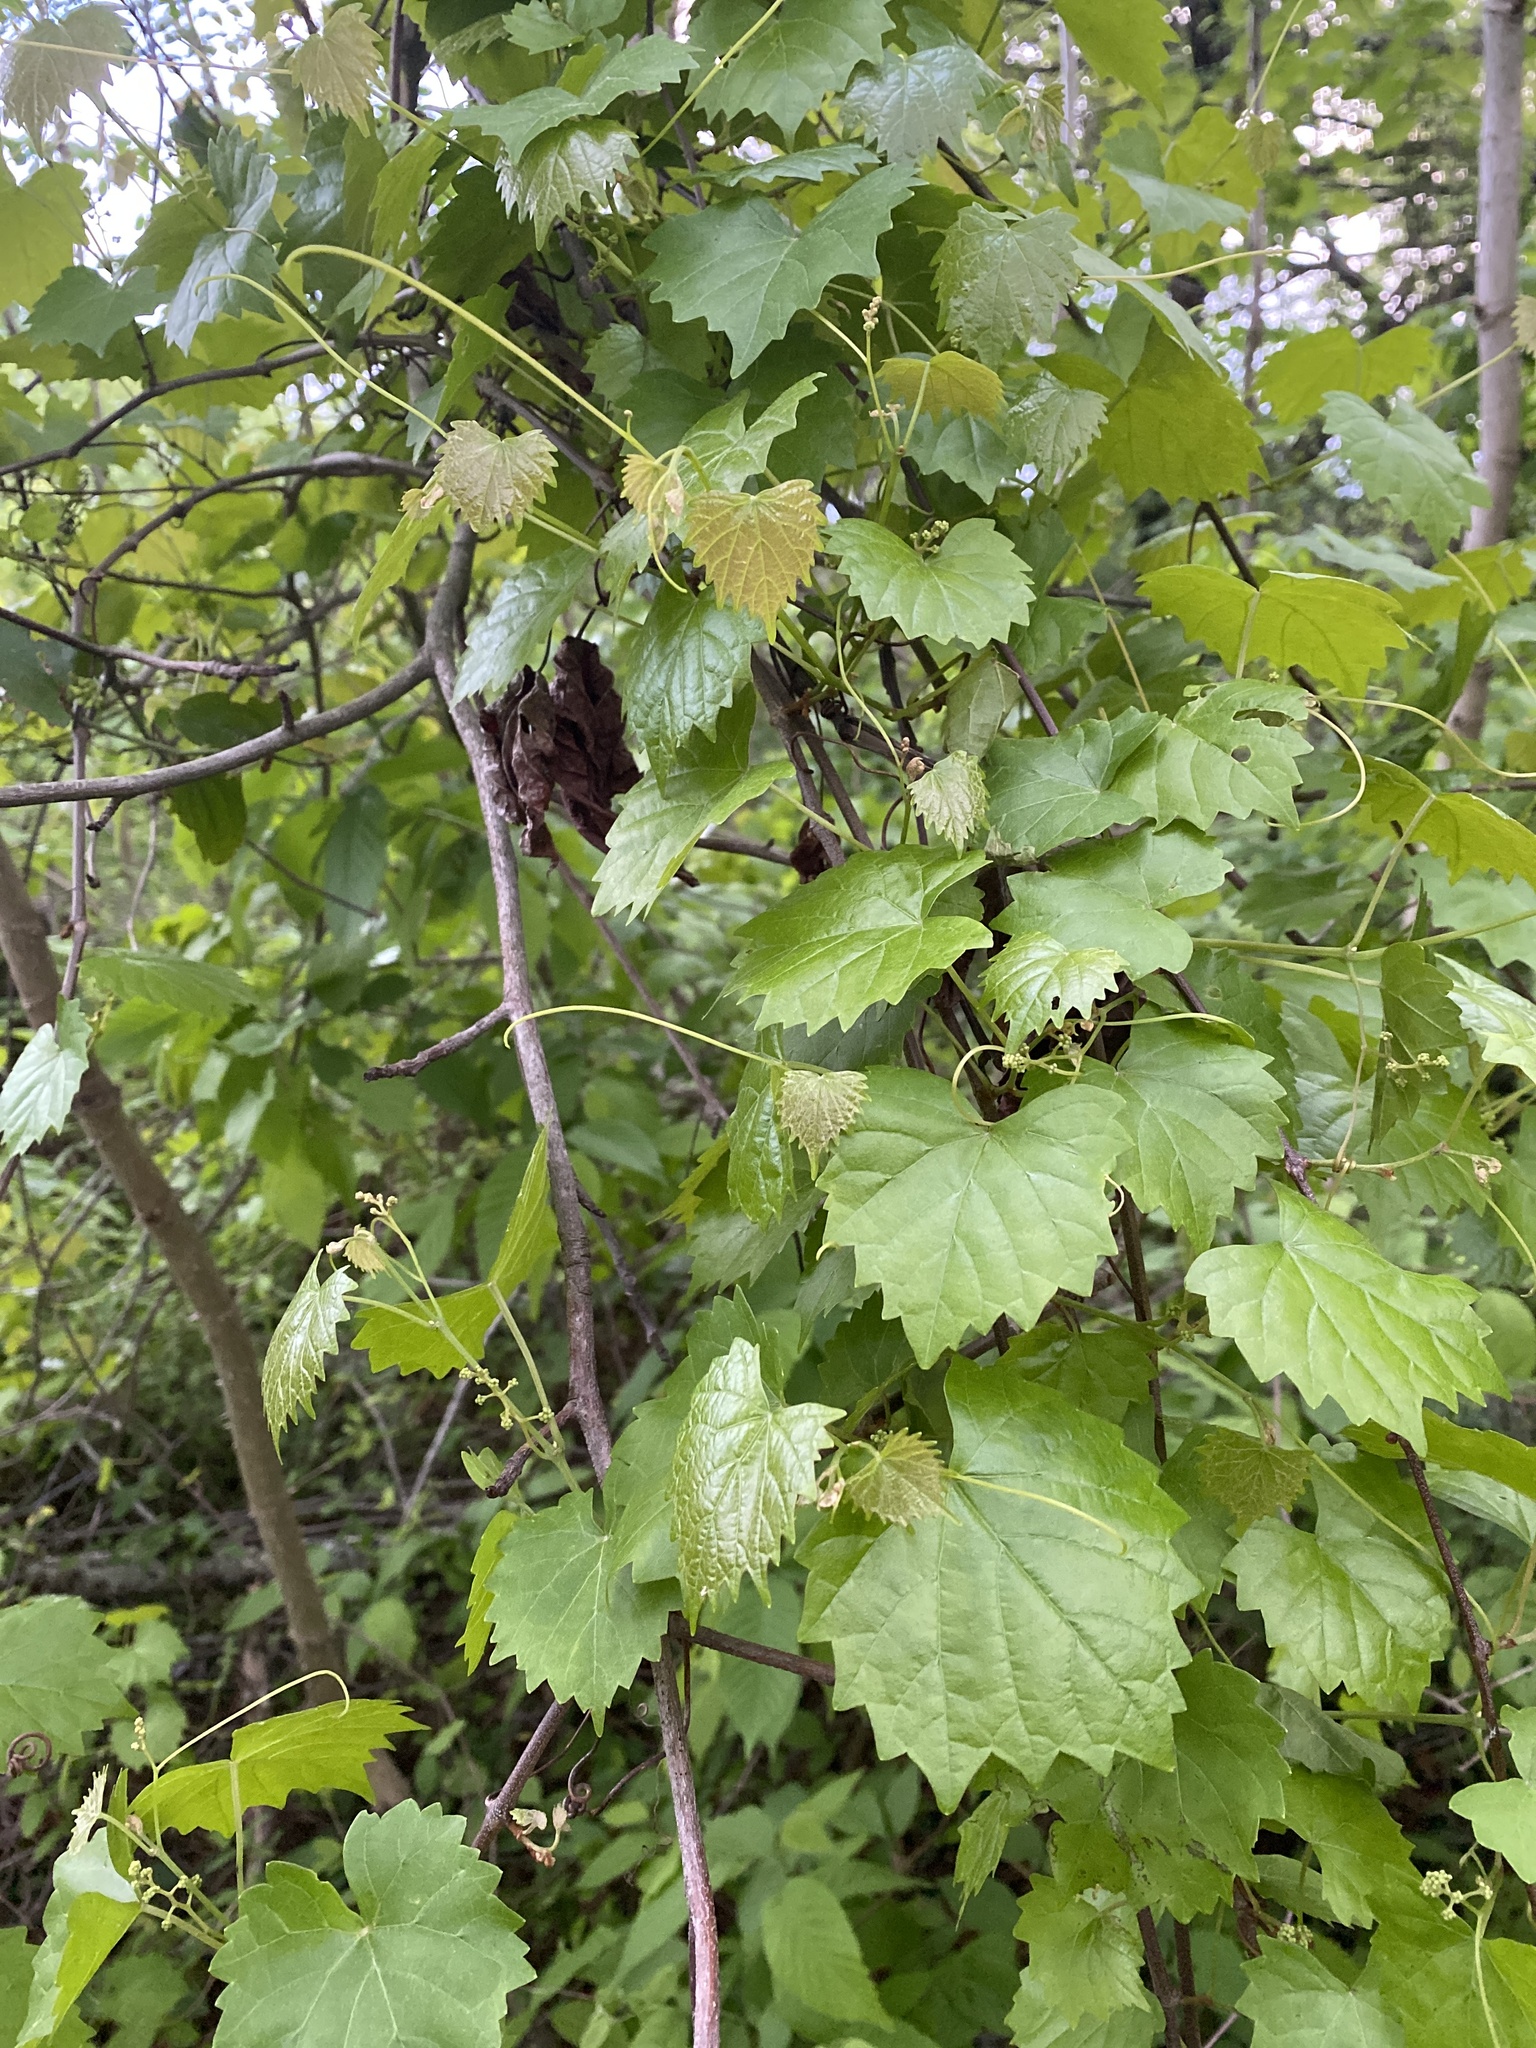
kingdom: Plantae
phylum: Tracheophyta
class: Magnoliopsida
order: Vitales
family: Vitaceae
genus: Vitis
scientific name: Vitis rotundifolia
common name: Muscadine grape
